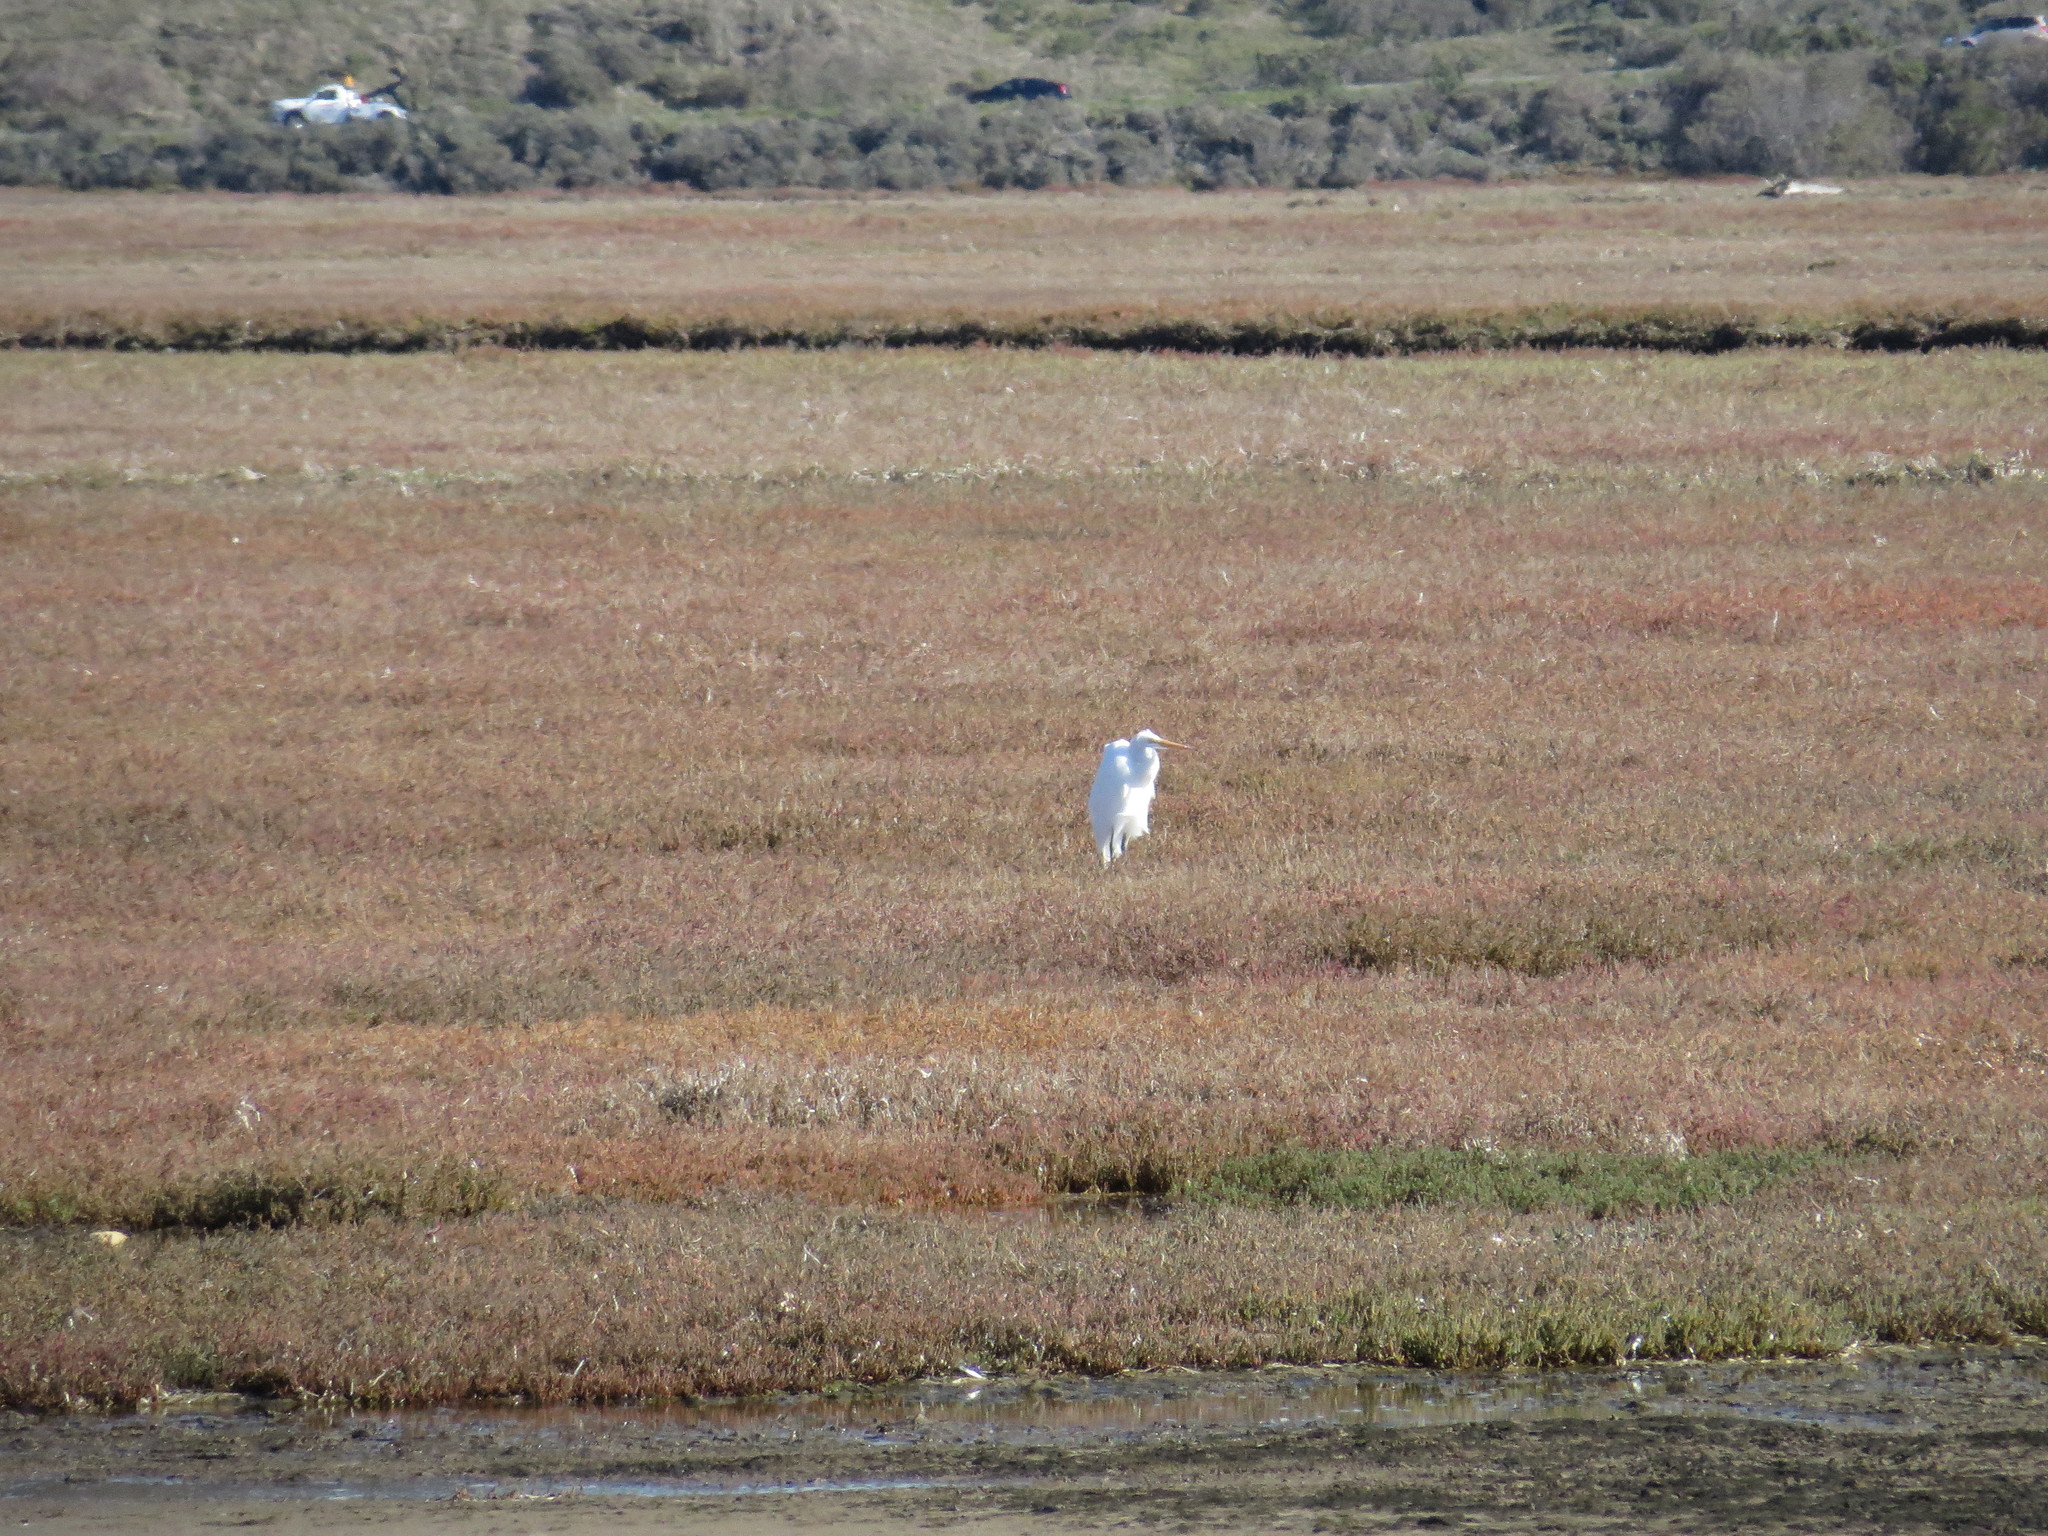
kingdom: Animalia
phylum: Chordata
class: Aves
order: Pelecaniformes
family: Ardeidae
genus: Ardea
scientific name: Ardea alba
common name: Great egret
